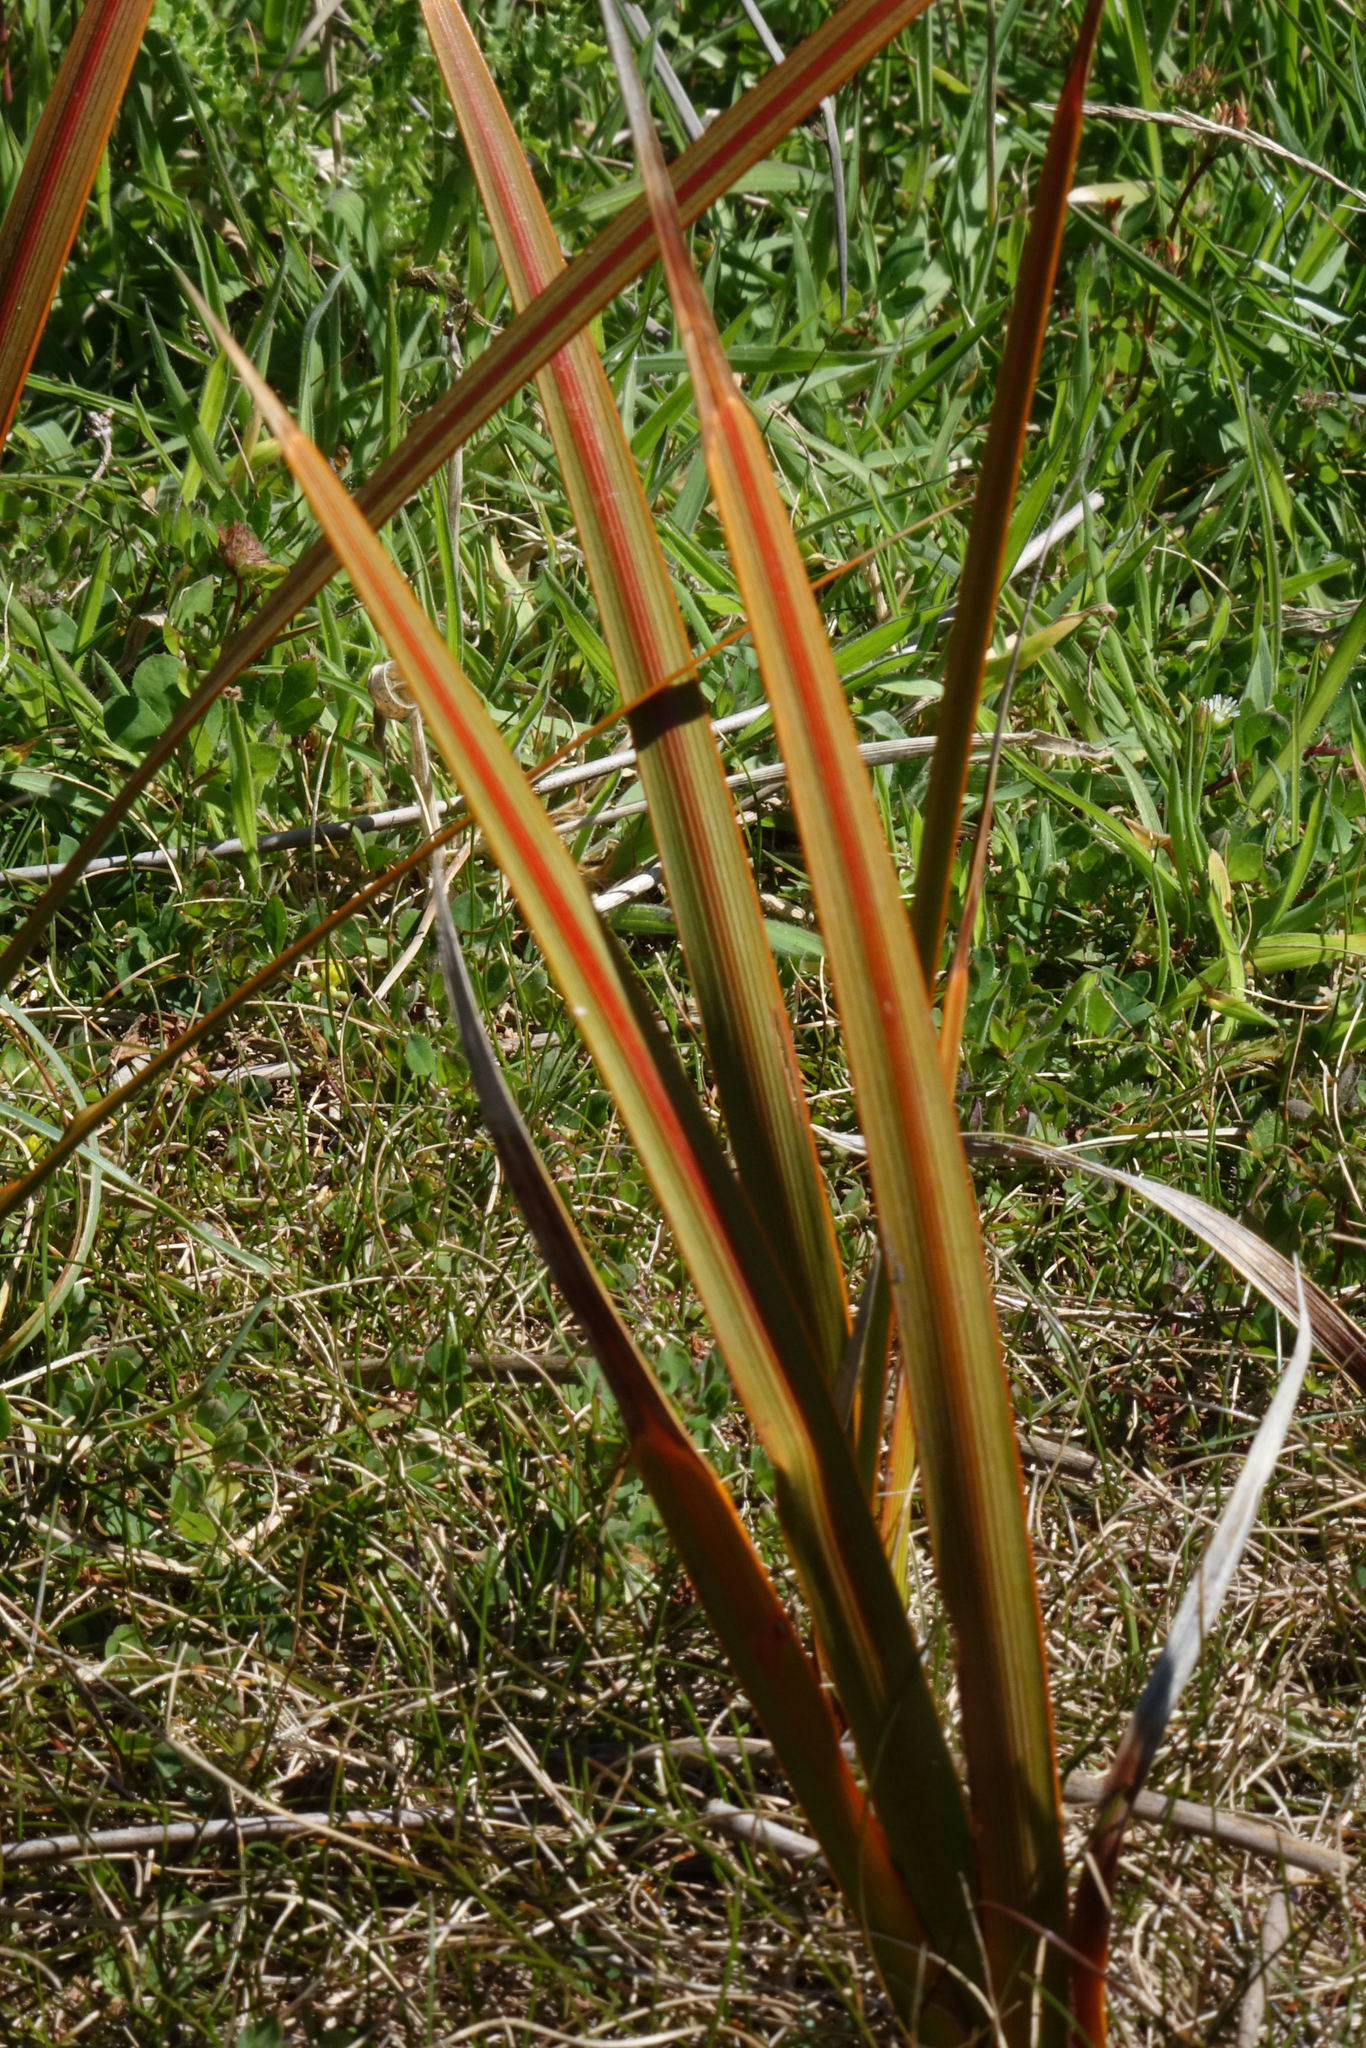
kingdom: Plantae
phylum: Tracheophyta
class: Liliopsida
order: Asparagales
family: Iridaceae
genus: Libertia
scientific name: Libertia peregrinans
